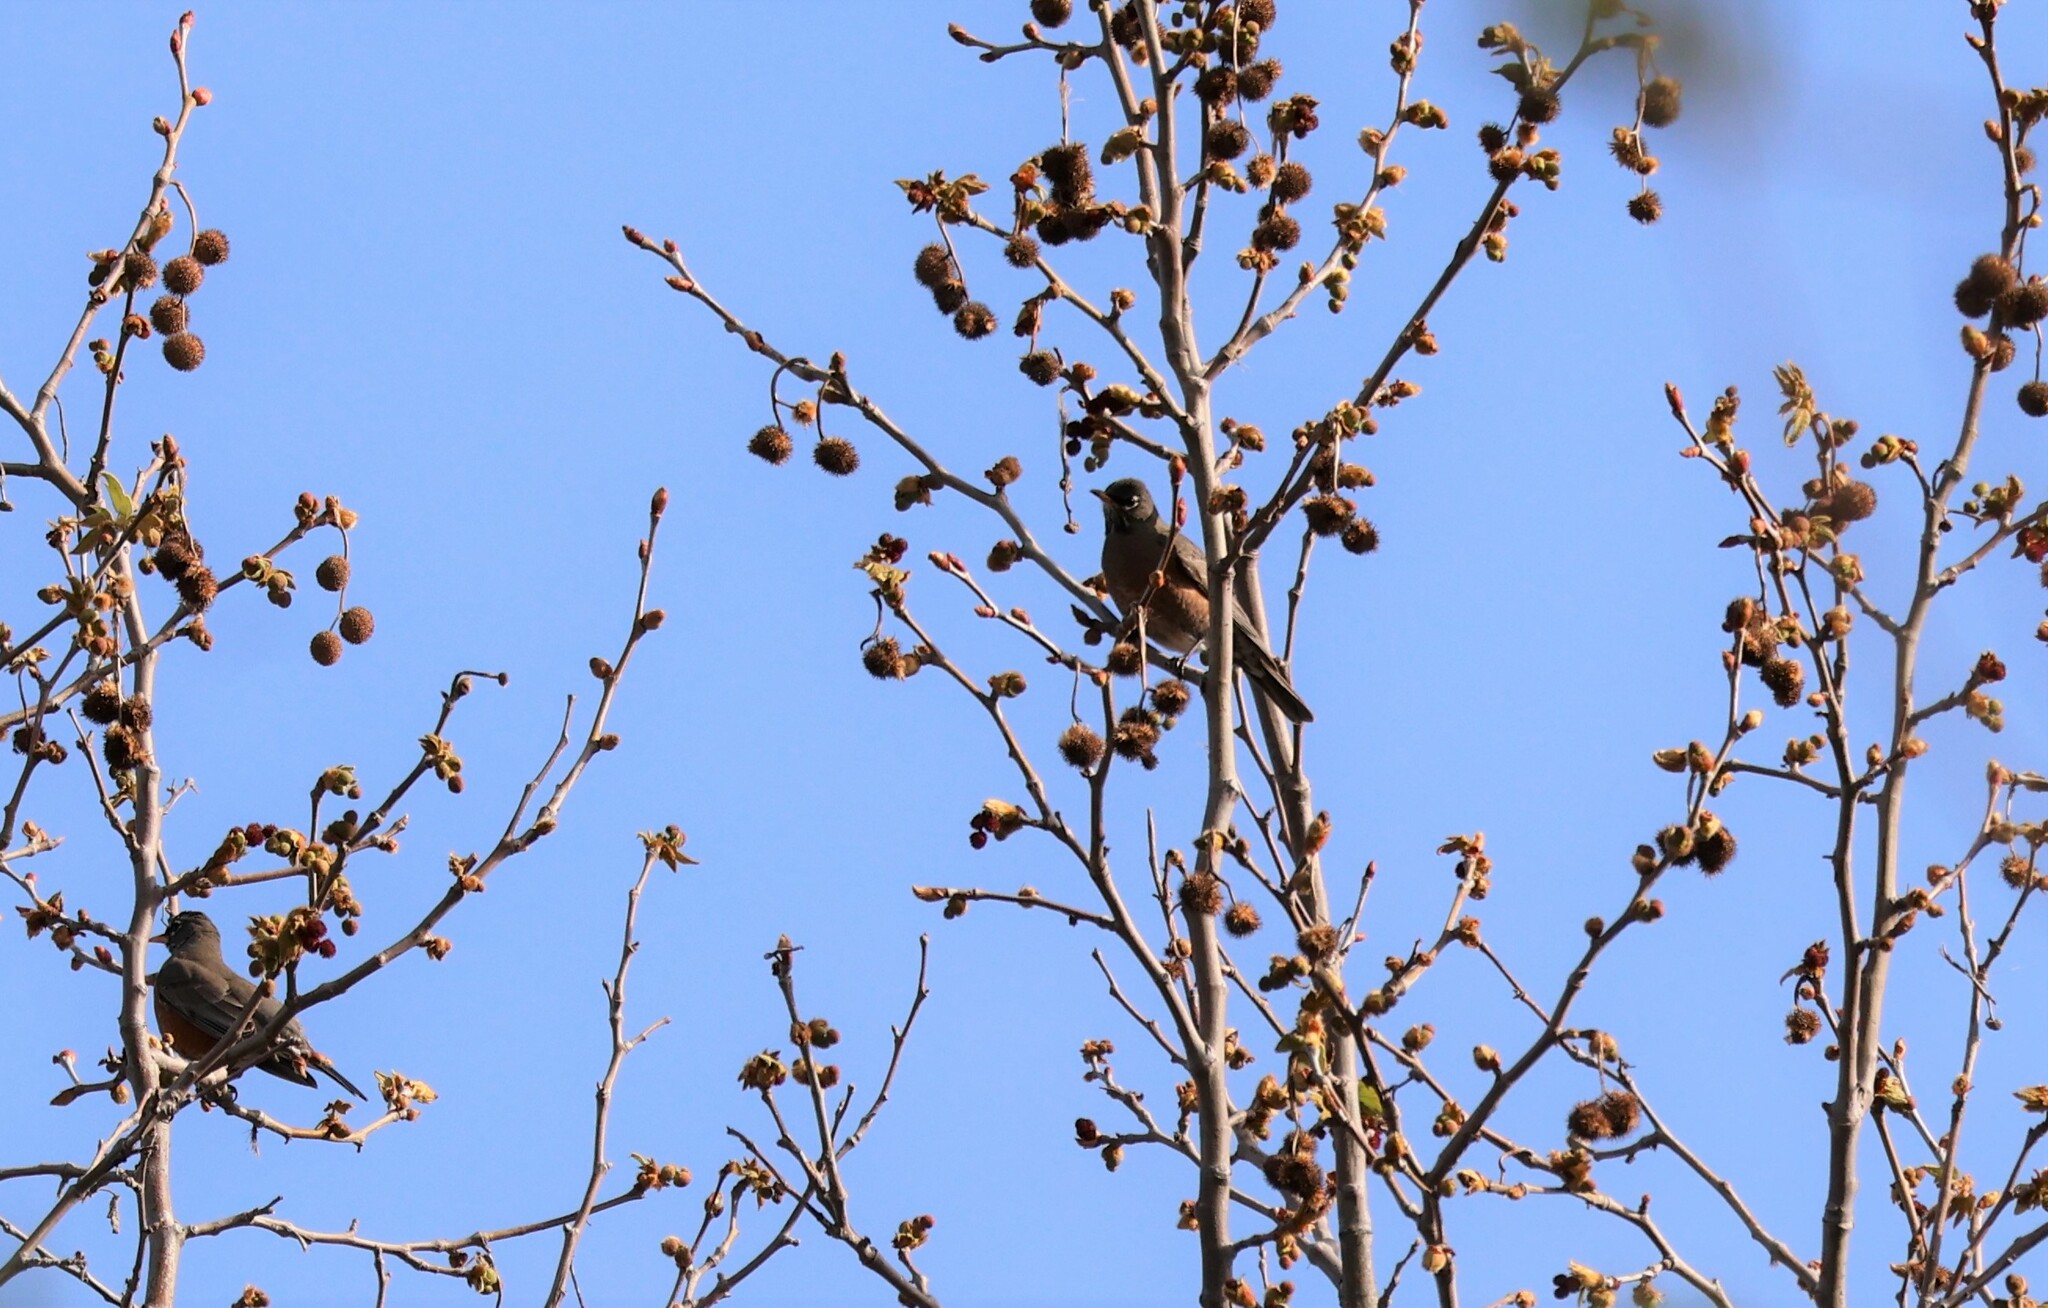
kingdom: Animalia
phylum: Chordata
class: Aves
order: Passeriformes
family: Turdidae
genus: Turdus
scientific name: Turdus migratorius
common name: American robin
